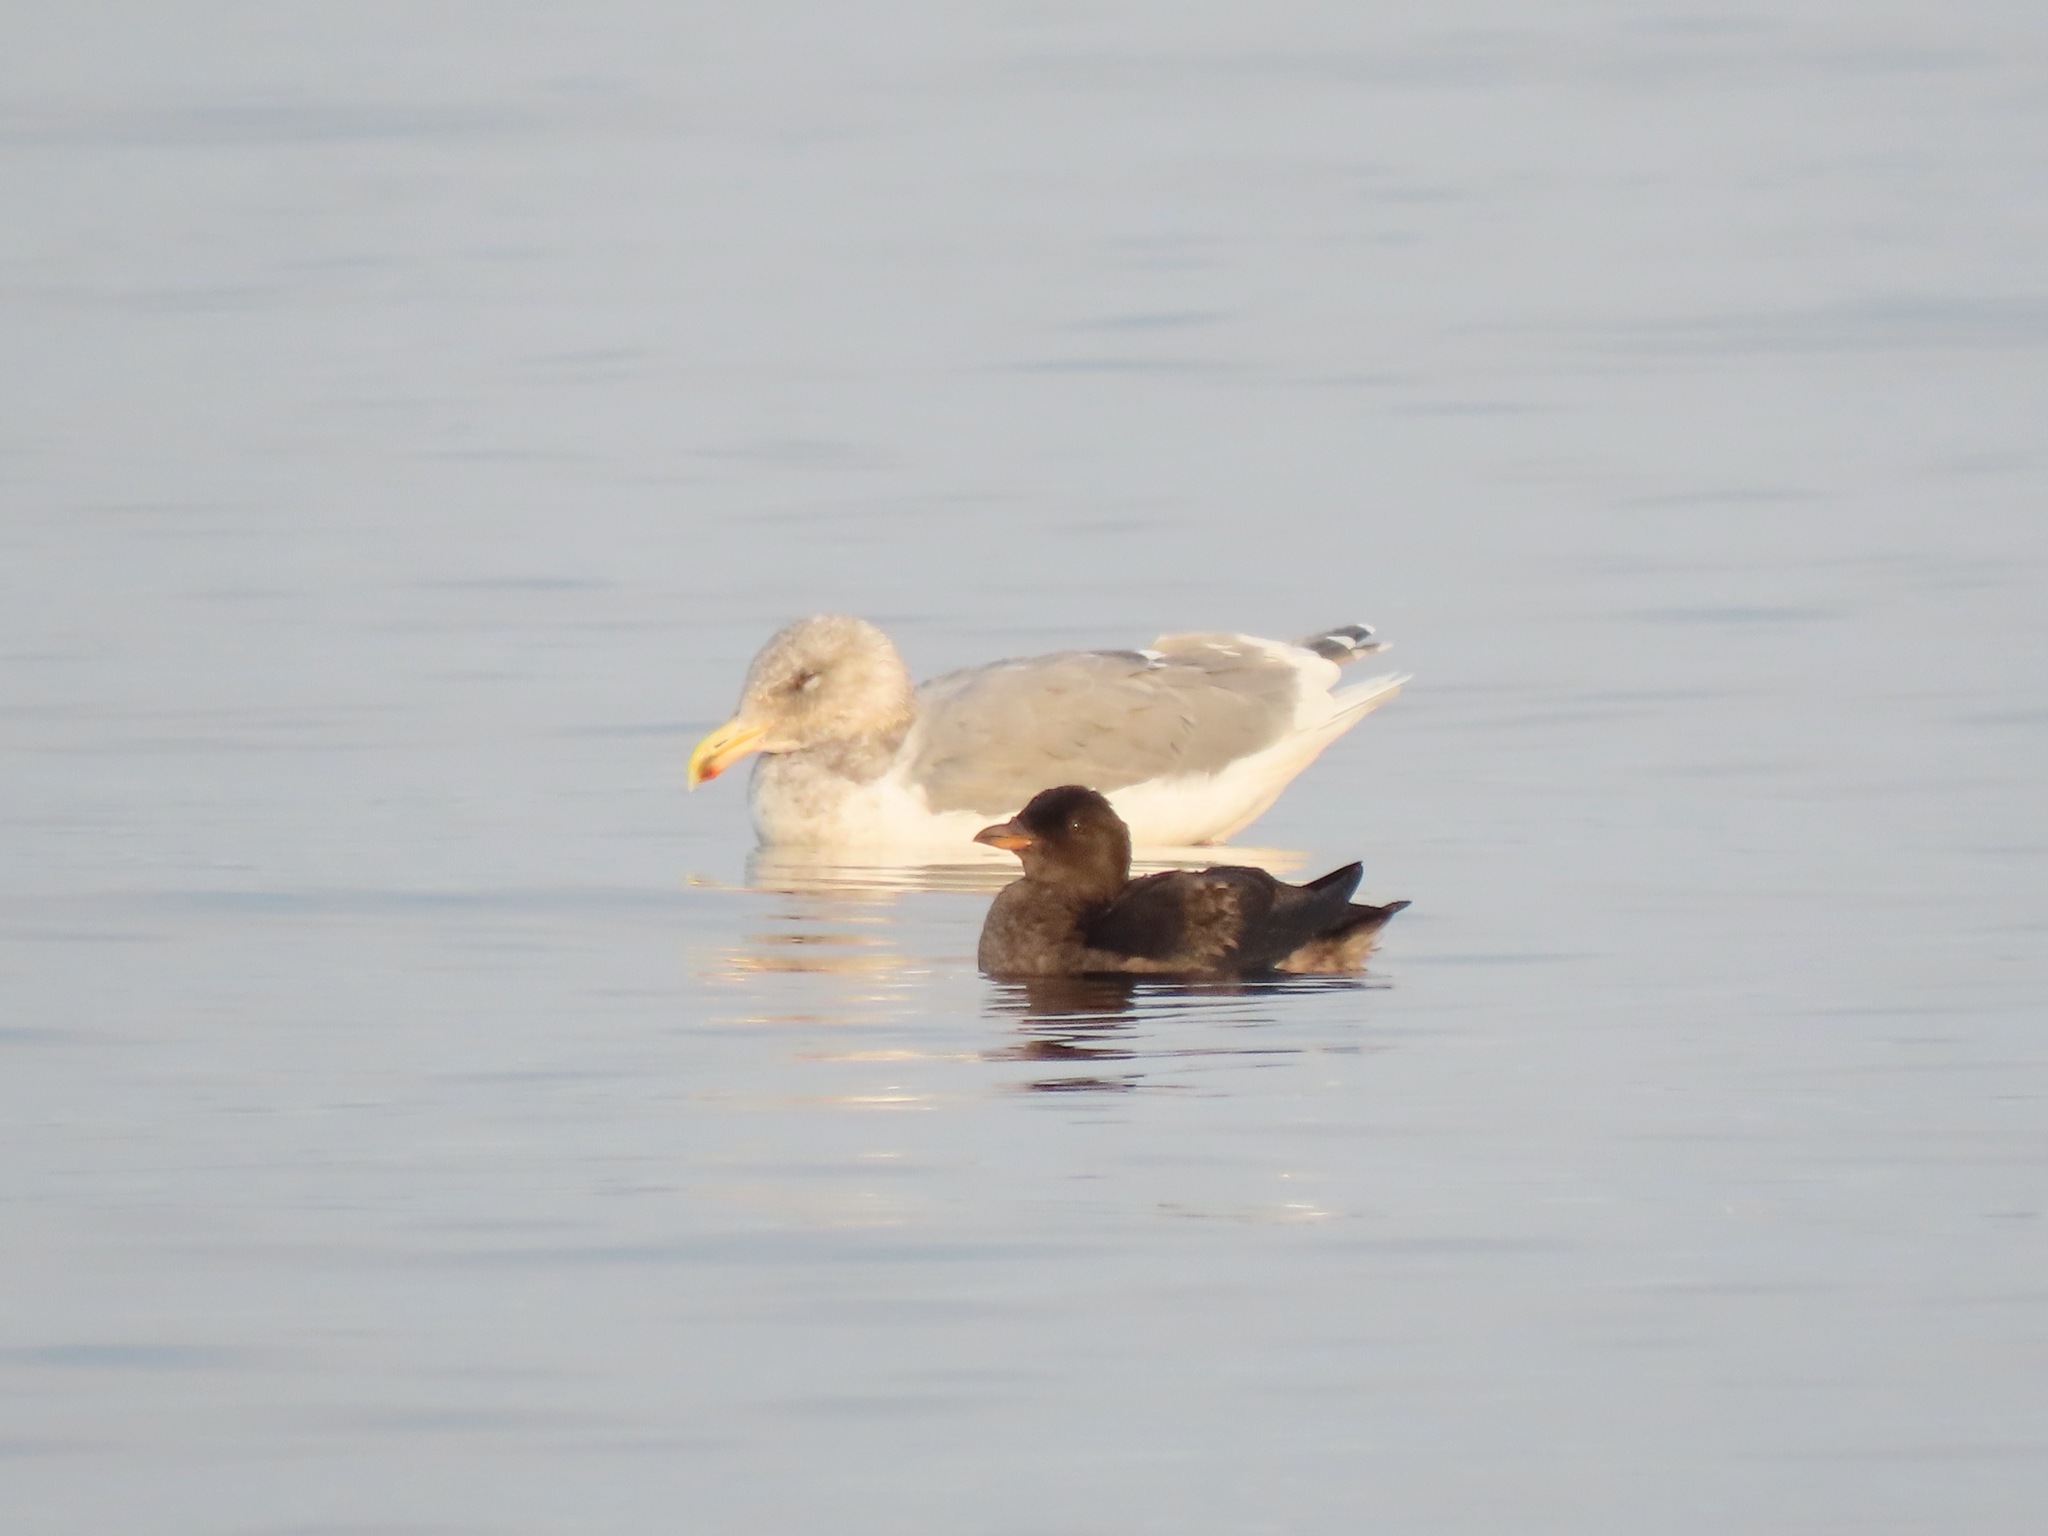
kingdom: Animalia
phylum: Chordata
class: Aves
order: Charadriiformes
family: Alcidae
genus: Cerorhinca
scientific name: Cerorhinca monocerata
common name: Rhinoceros auklet
